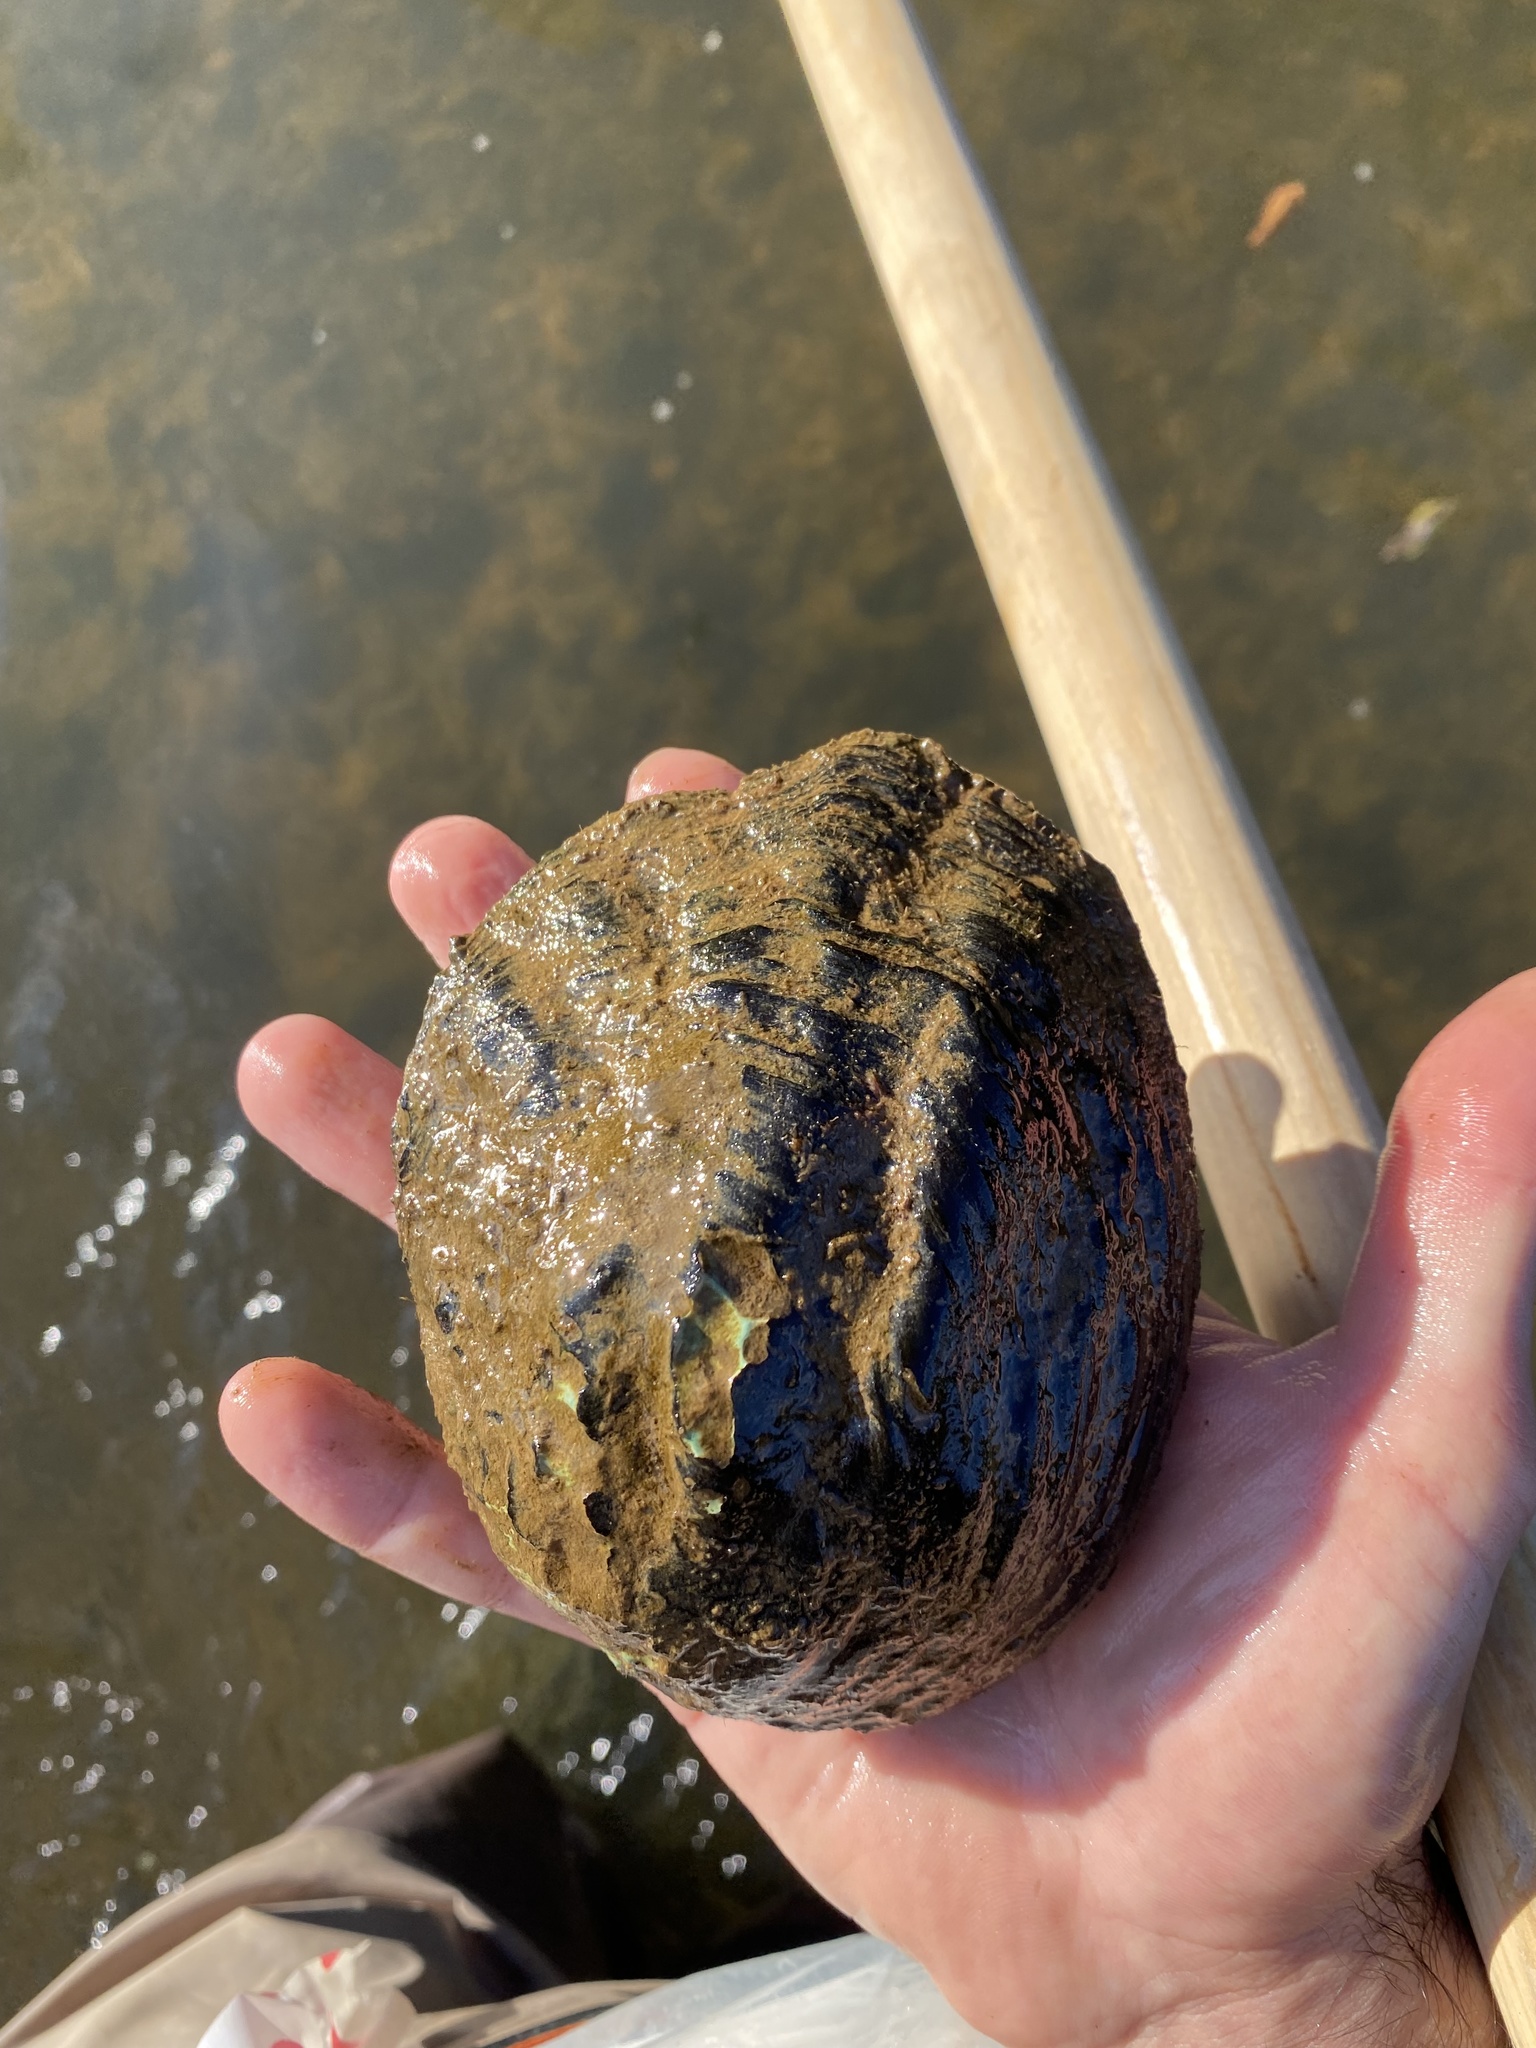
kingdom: Animalia
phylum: Mollusca
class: Bivalvia
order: Unionida
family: Unionidae
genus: Amblema
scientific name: Amblema elliottii
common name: Coosa fiveridge
